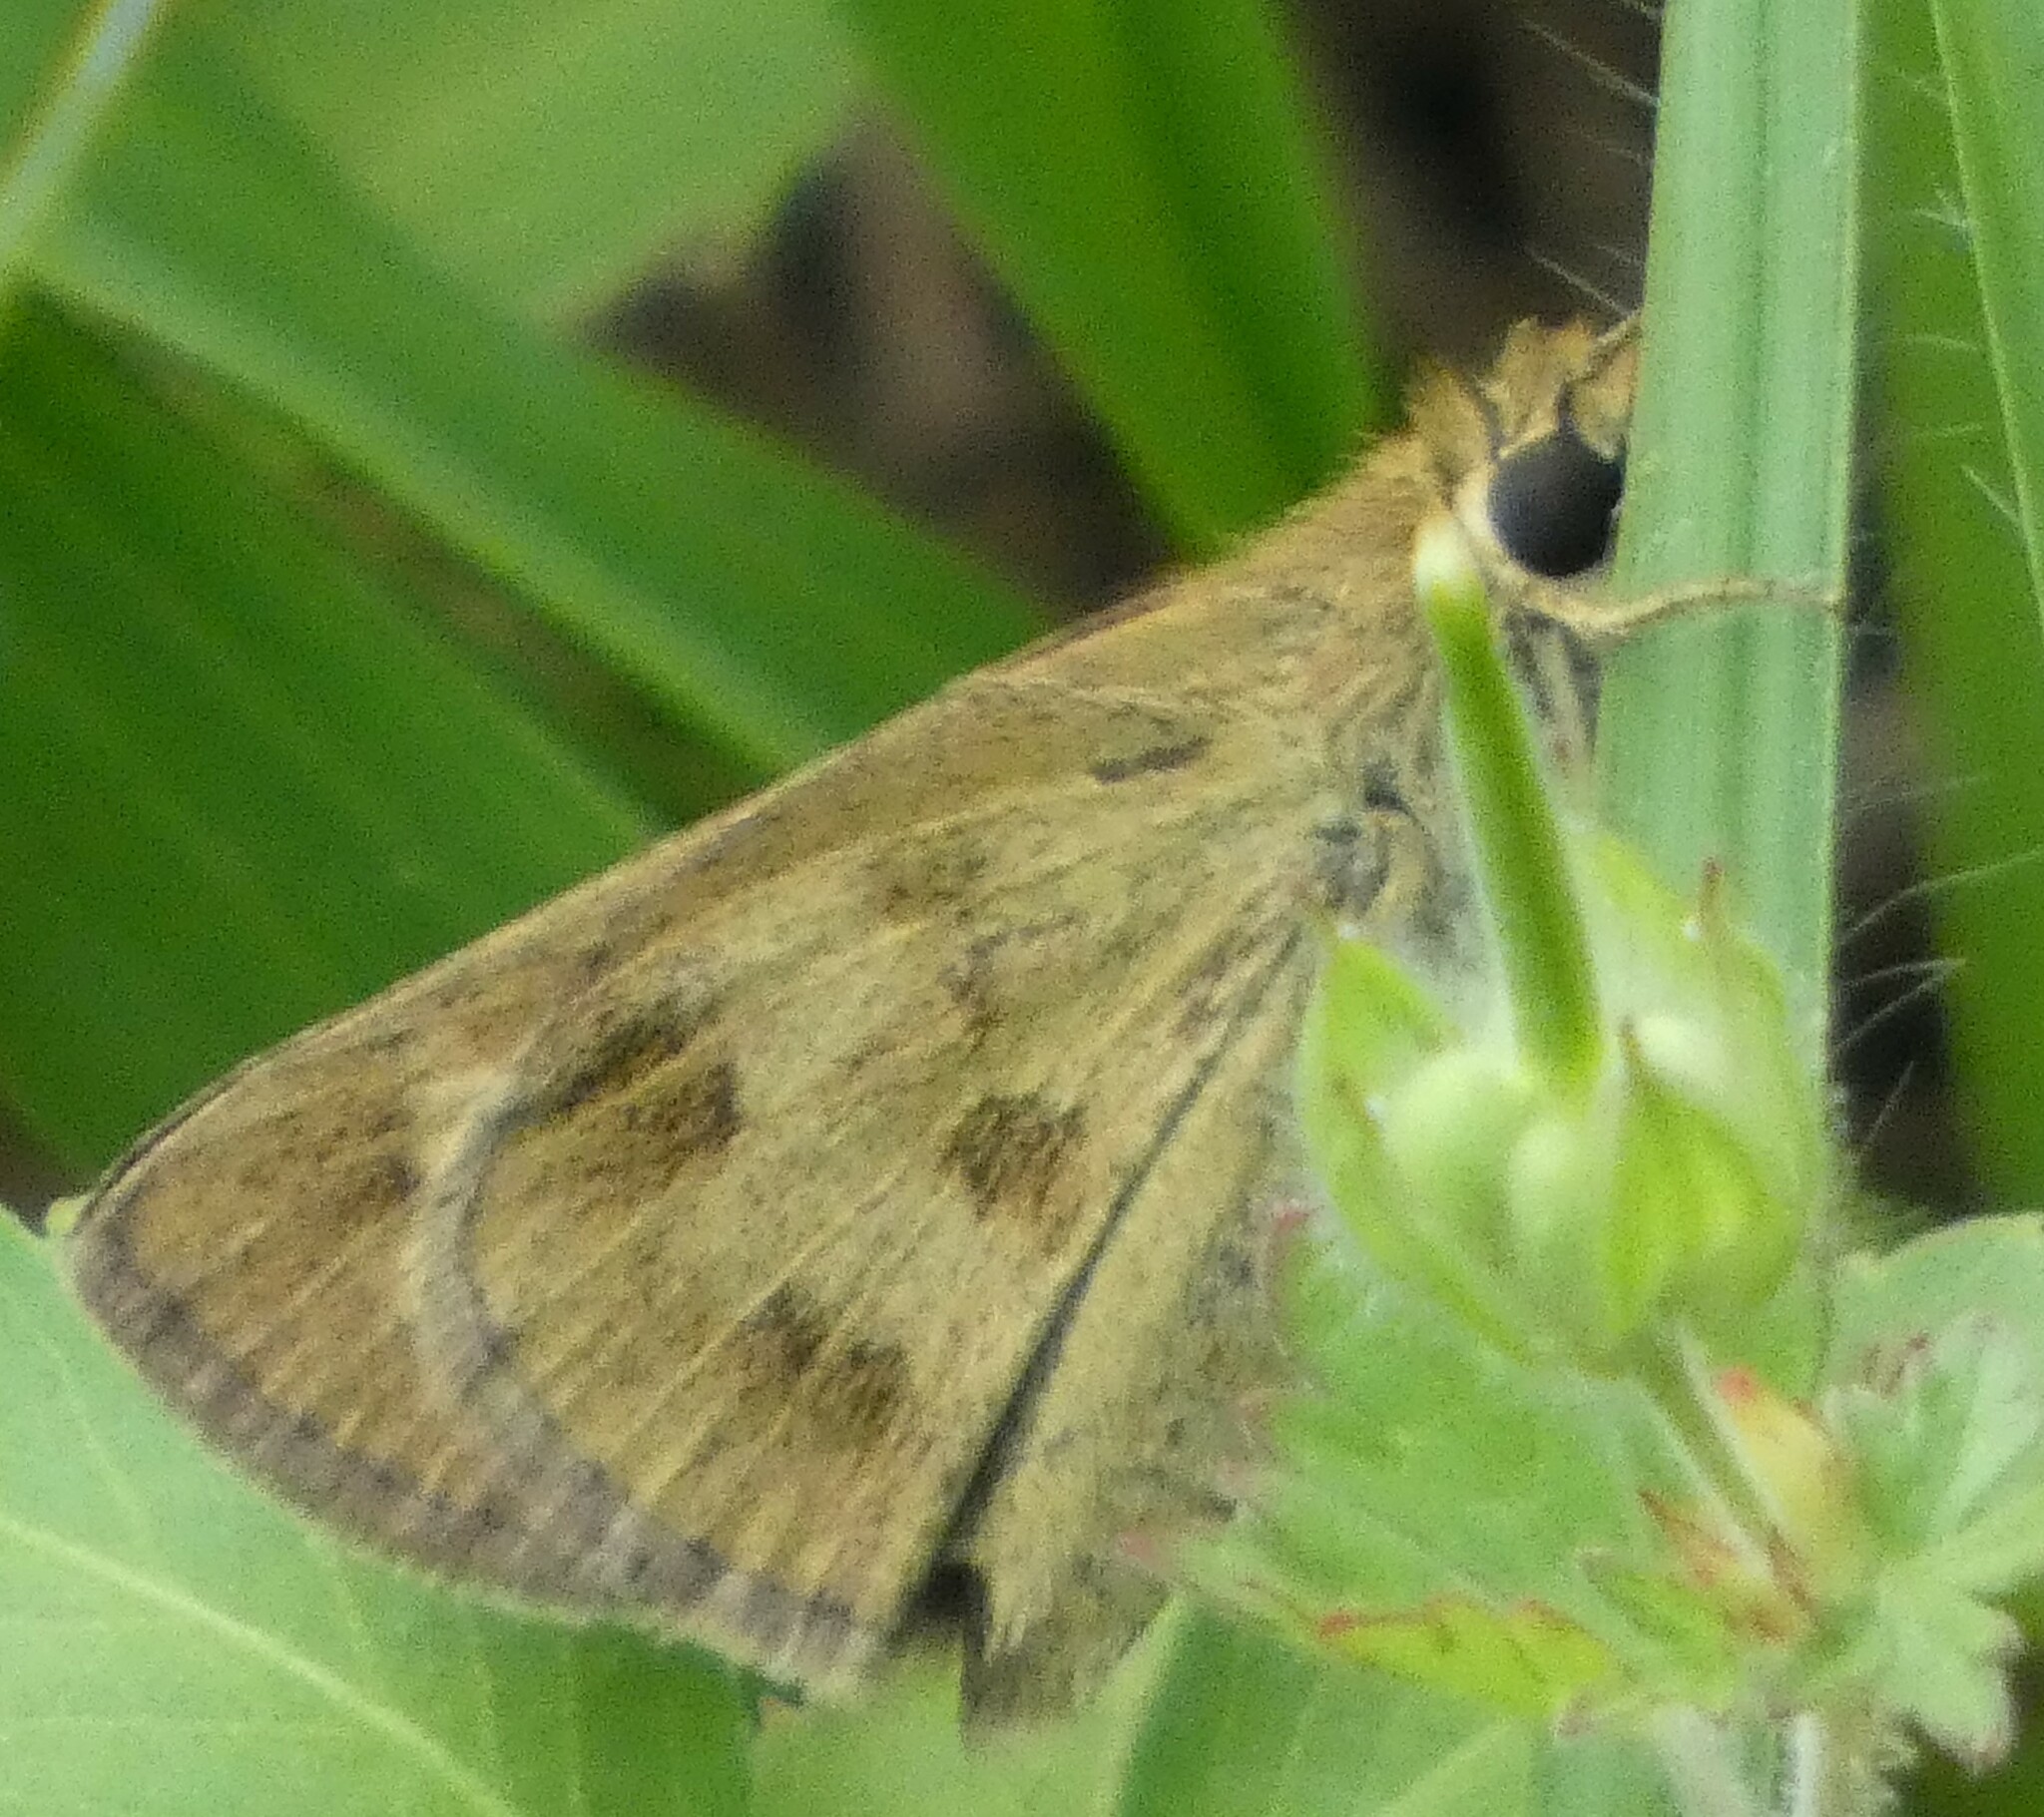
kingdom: Animalia
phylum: Arthropoda
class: Insecta
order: Lepidoptera
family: Hesperiidae
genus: Polites
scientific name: Polites vibex
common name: Whirlabout
